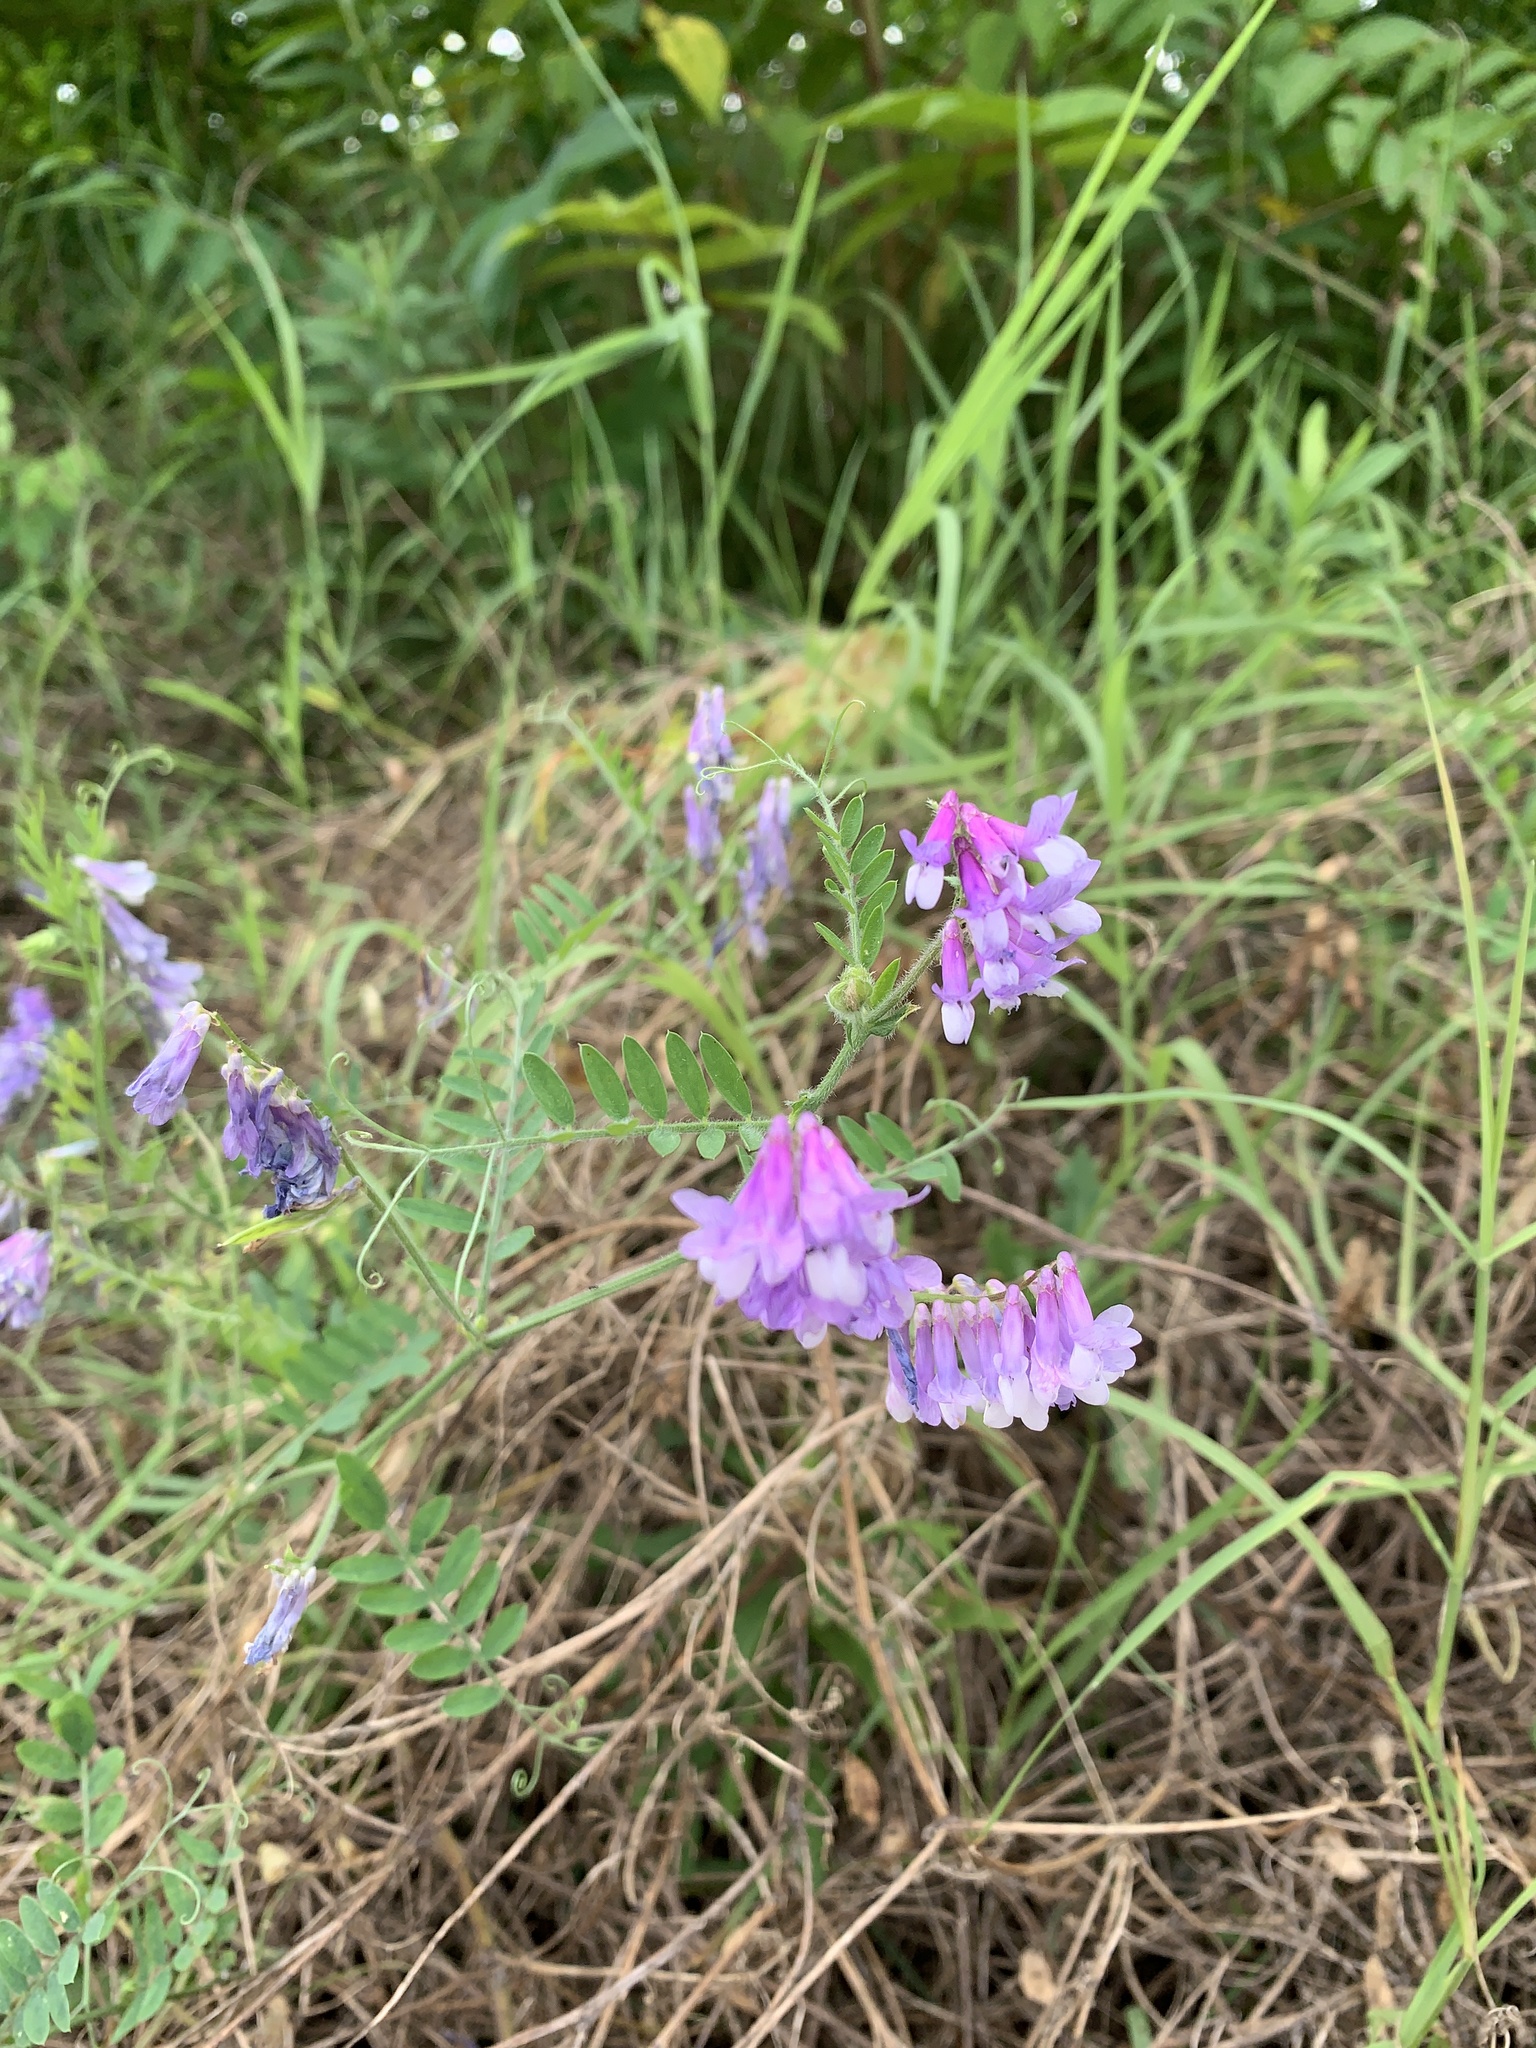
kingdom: Plantae
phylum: Tracheophyta
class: Magnoliopsida
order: Fabales
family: Fabaceae
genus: Vicia
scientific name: Vicia villosa
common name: Fodder vetch
